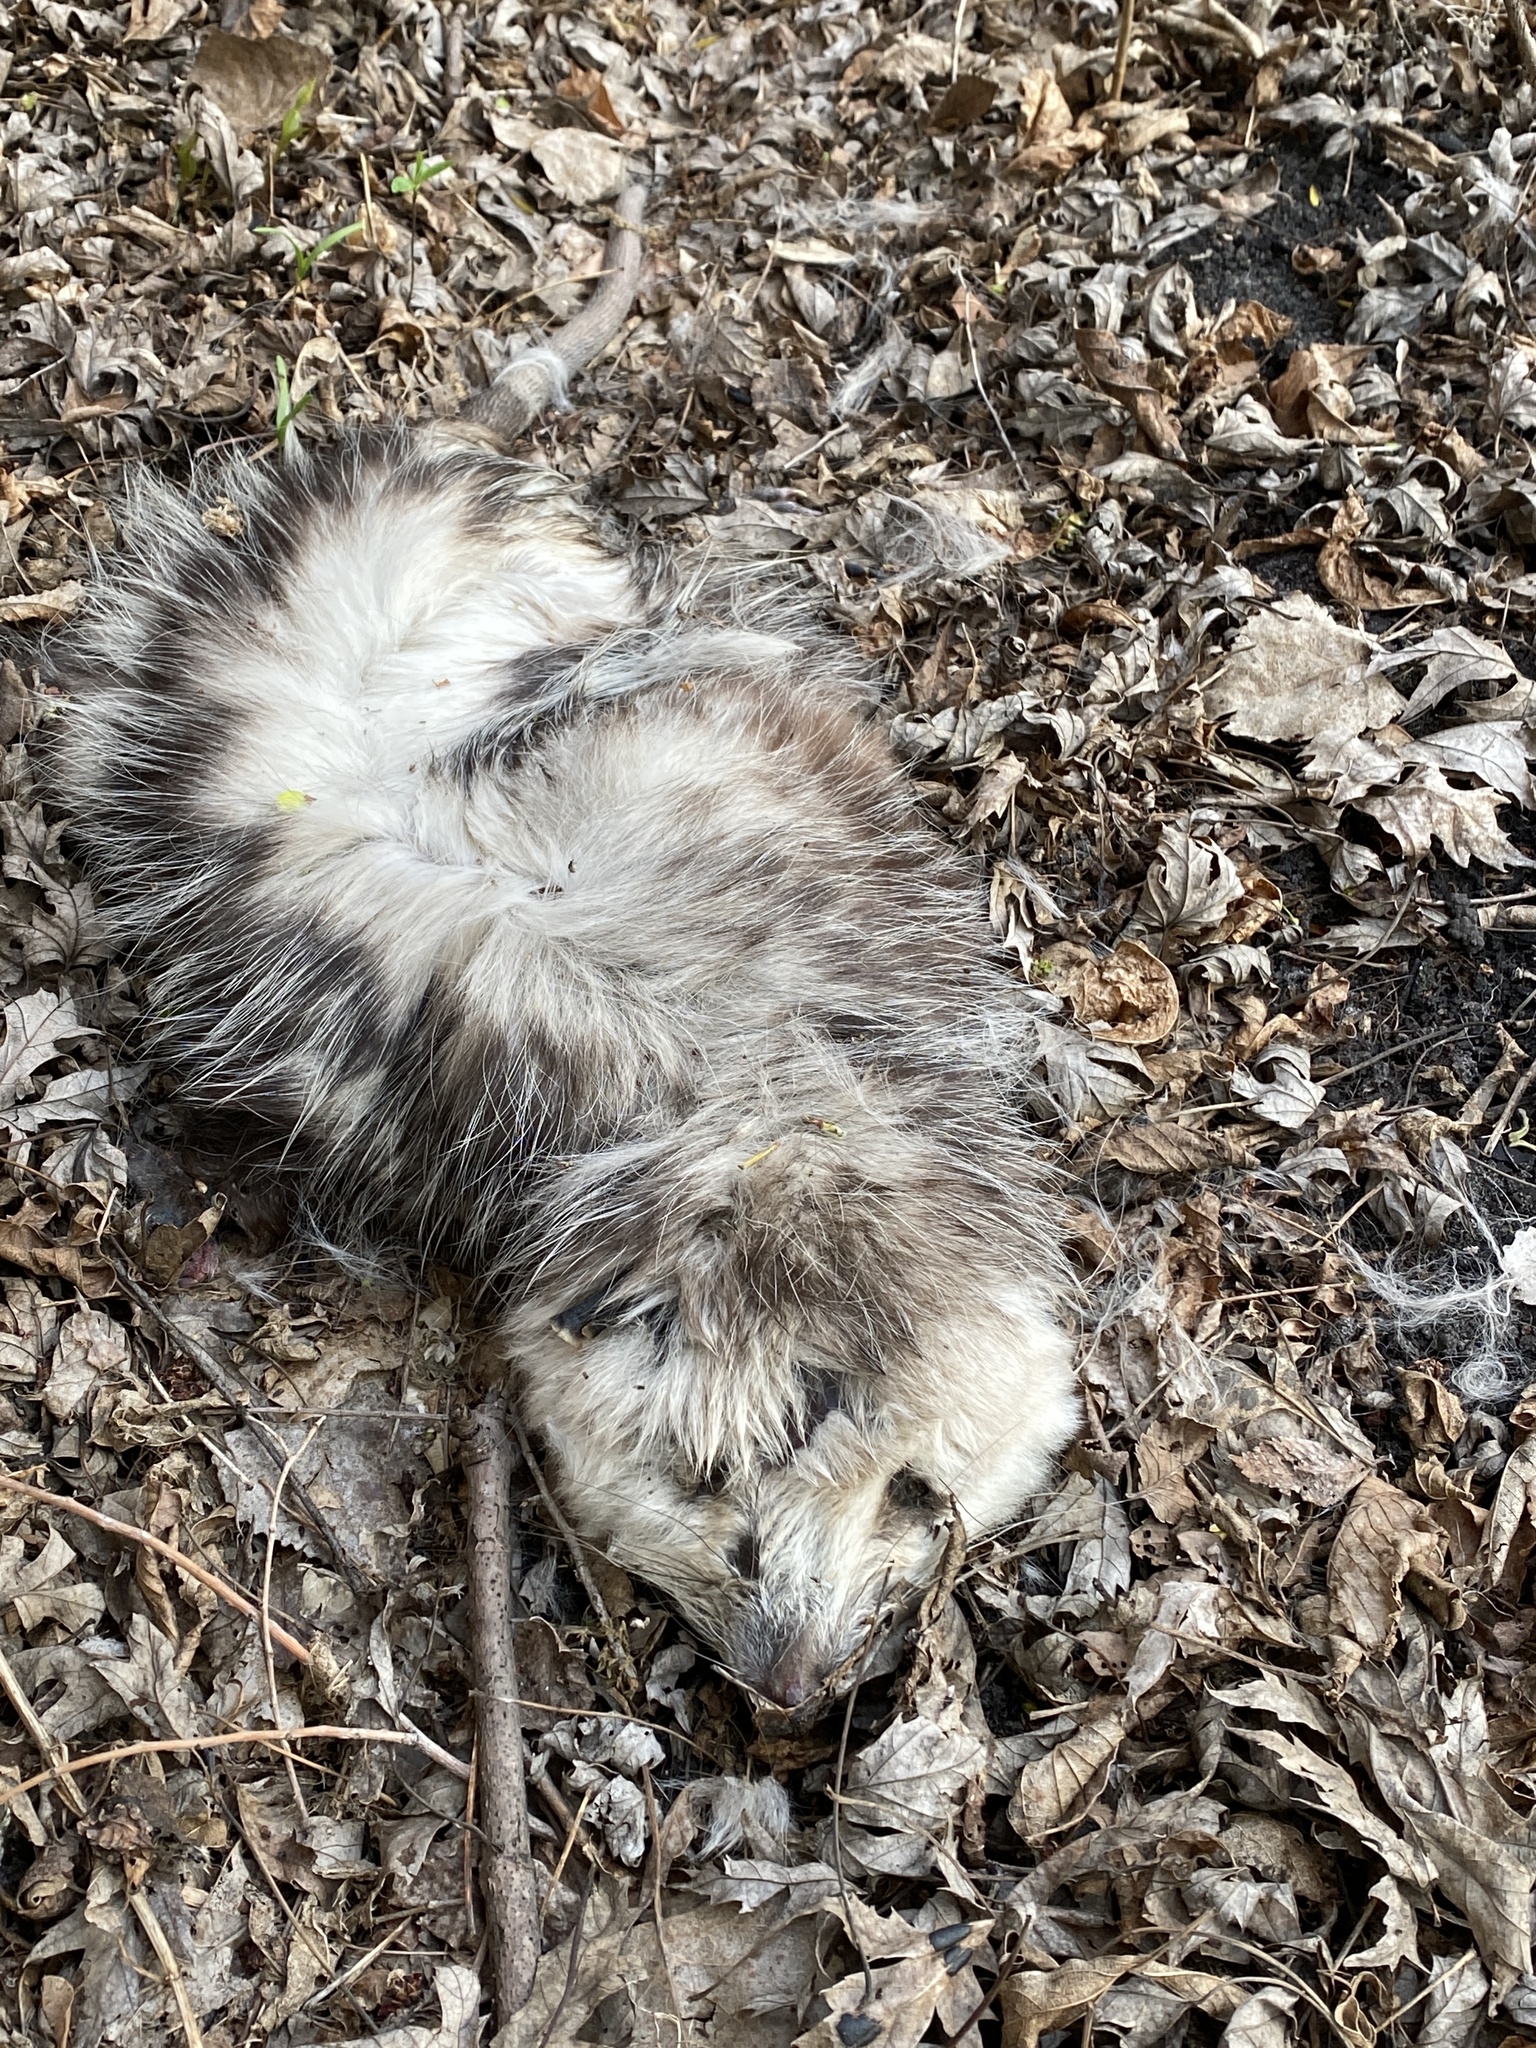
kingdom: Animalia
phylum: Chordata
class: Mammalia
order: Didelphimorphia
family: Didelphidae
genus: Didelphis
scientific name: Didelphis virginiana
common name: Virginia opossum
